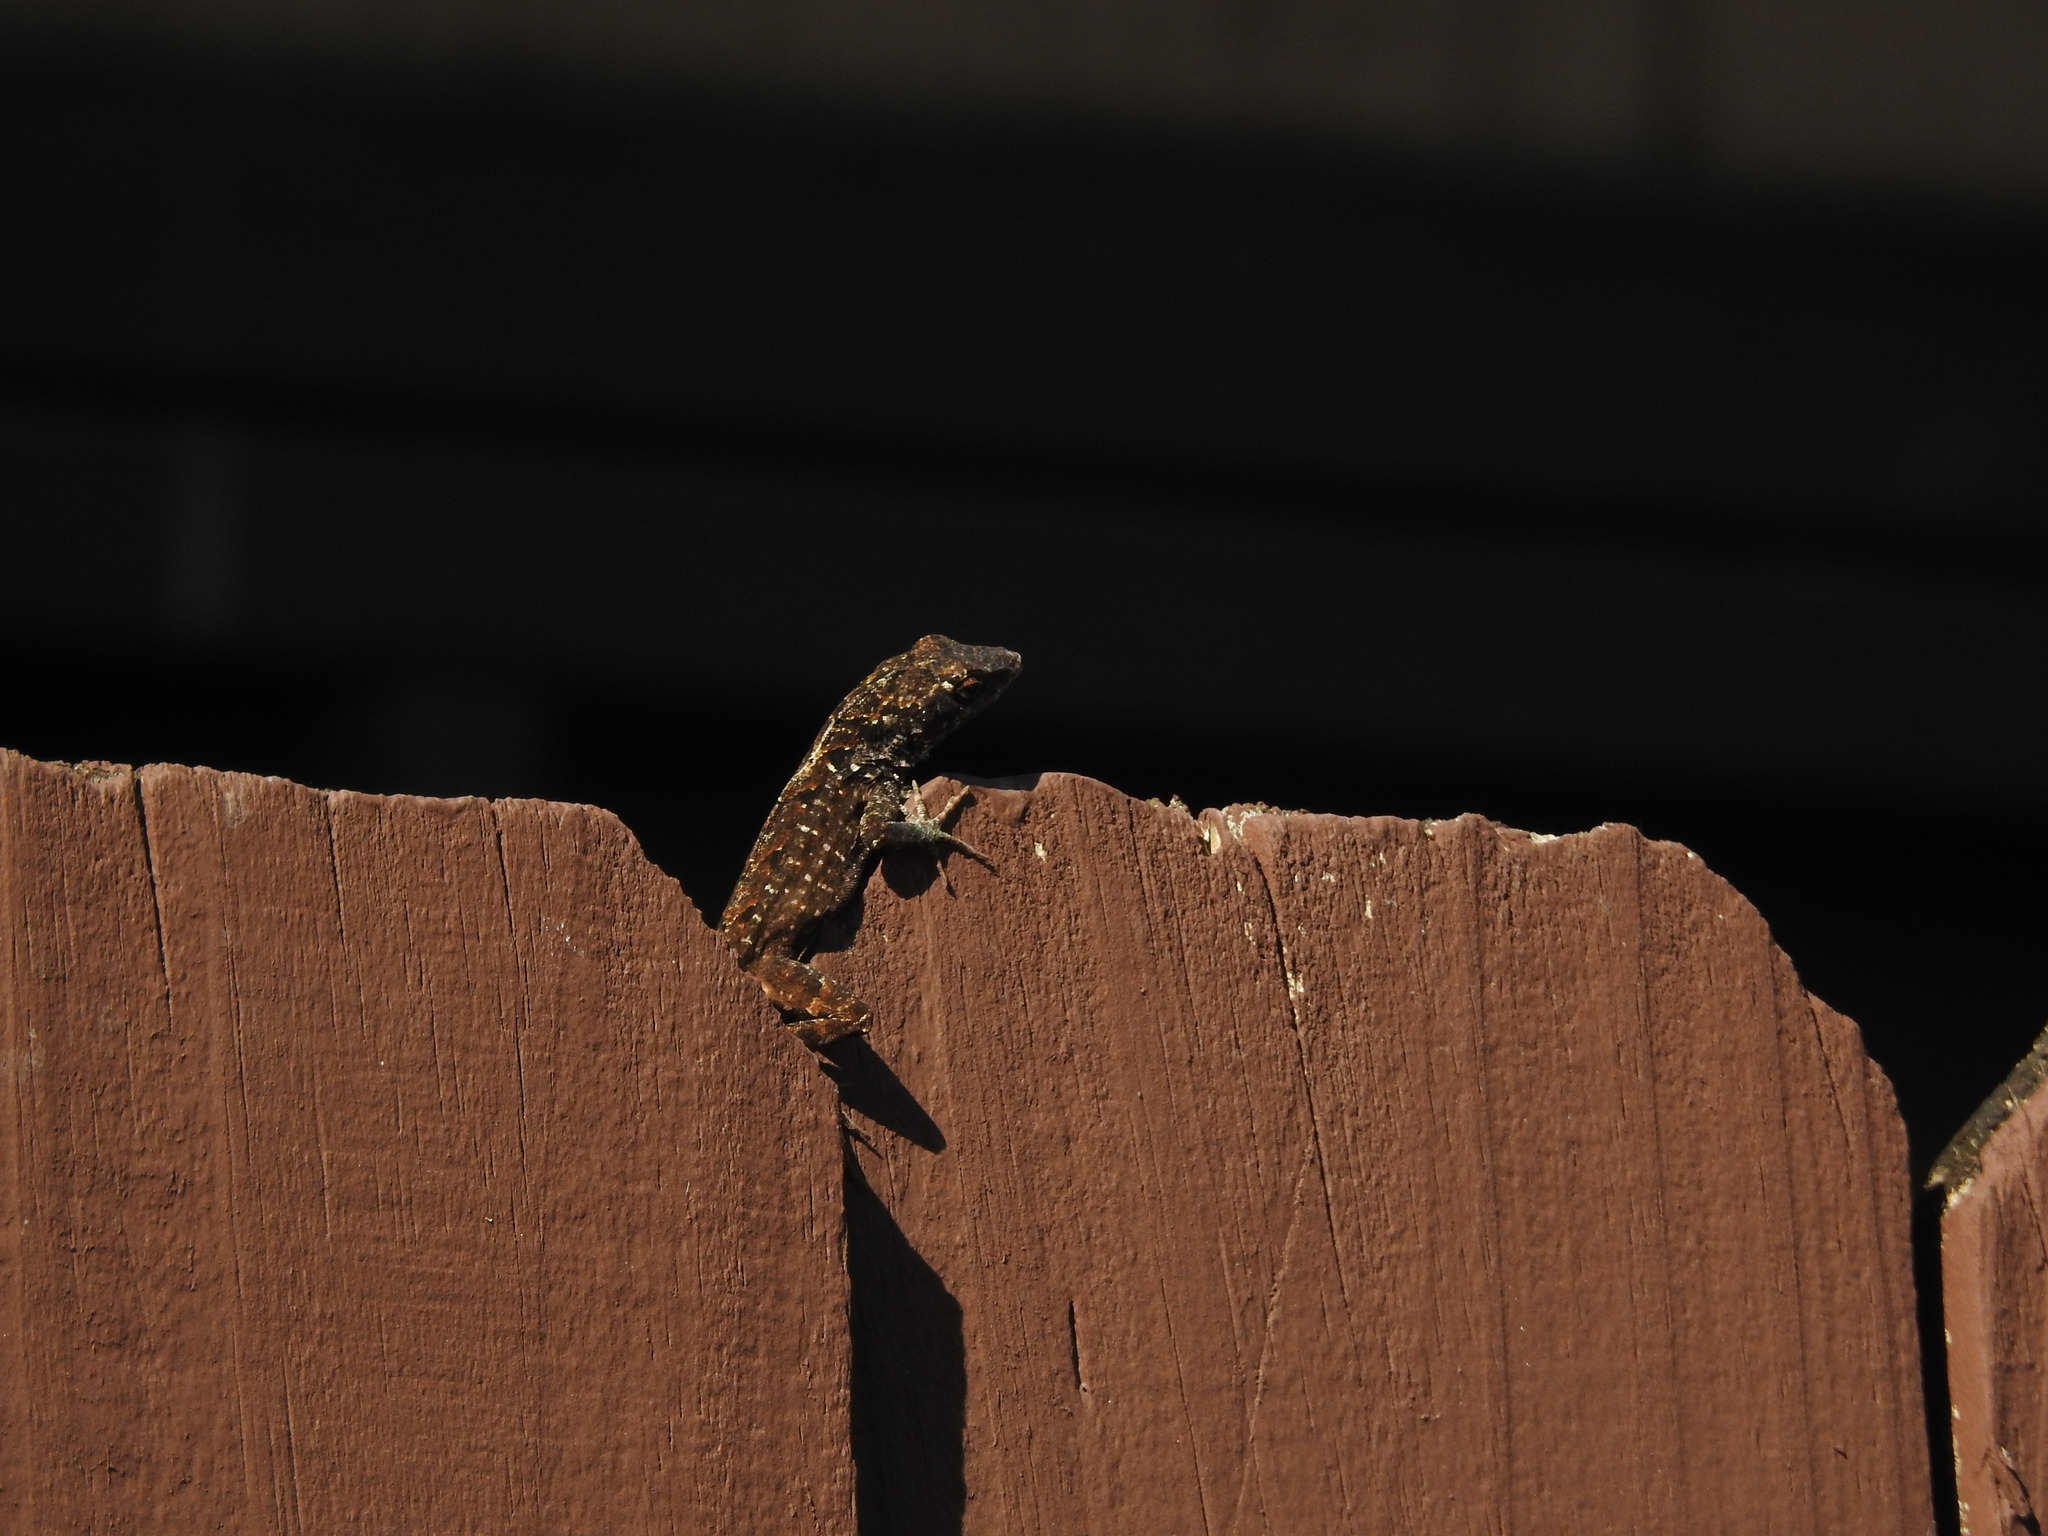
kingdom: Animalia
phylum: Chordata
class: Squamata
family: Dactyloidae
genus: Anolis
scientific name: Anolis sagrei
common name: Brown anole
